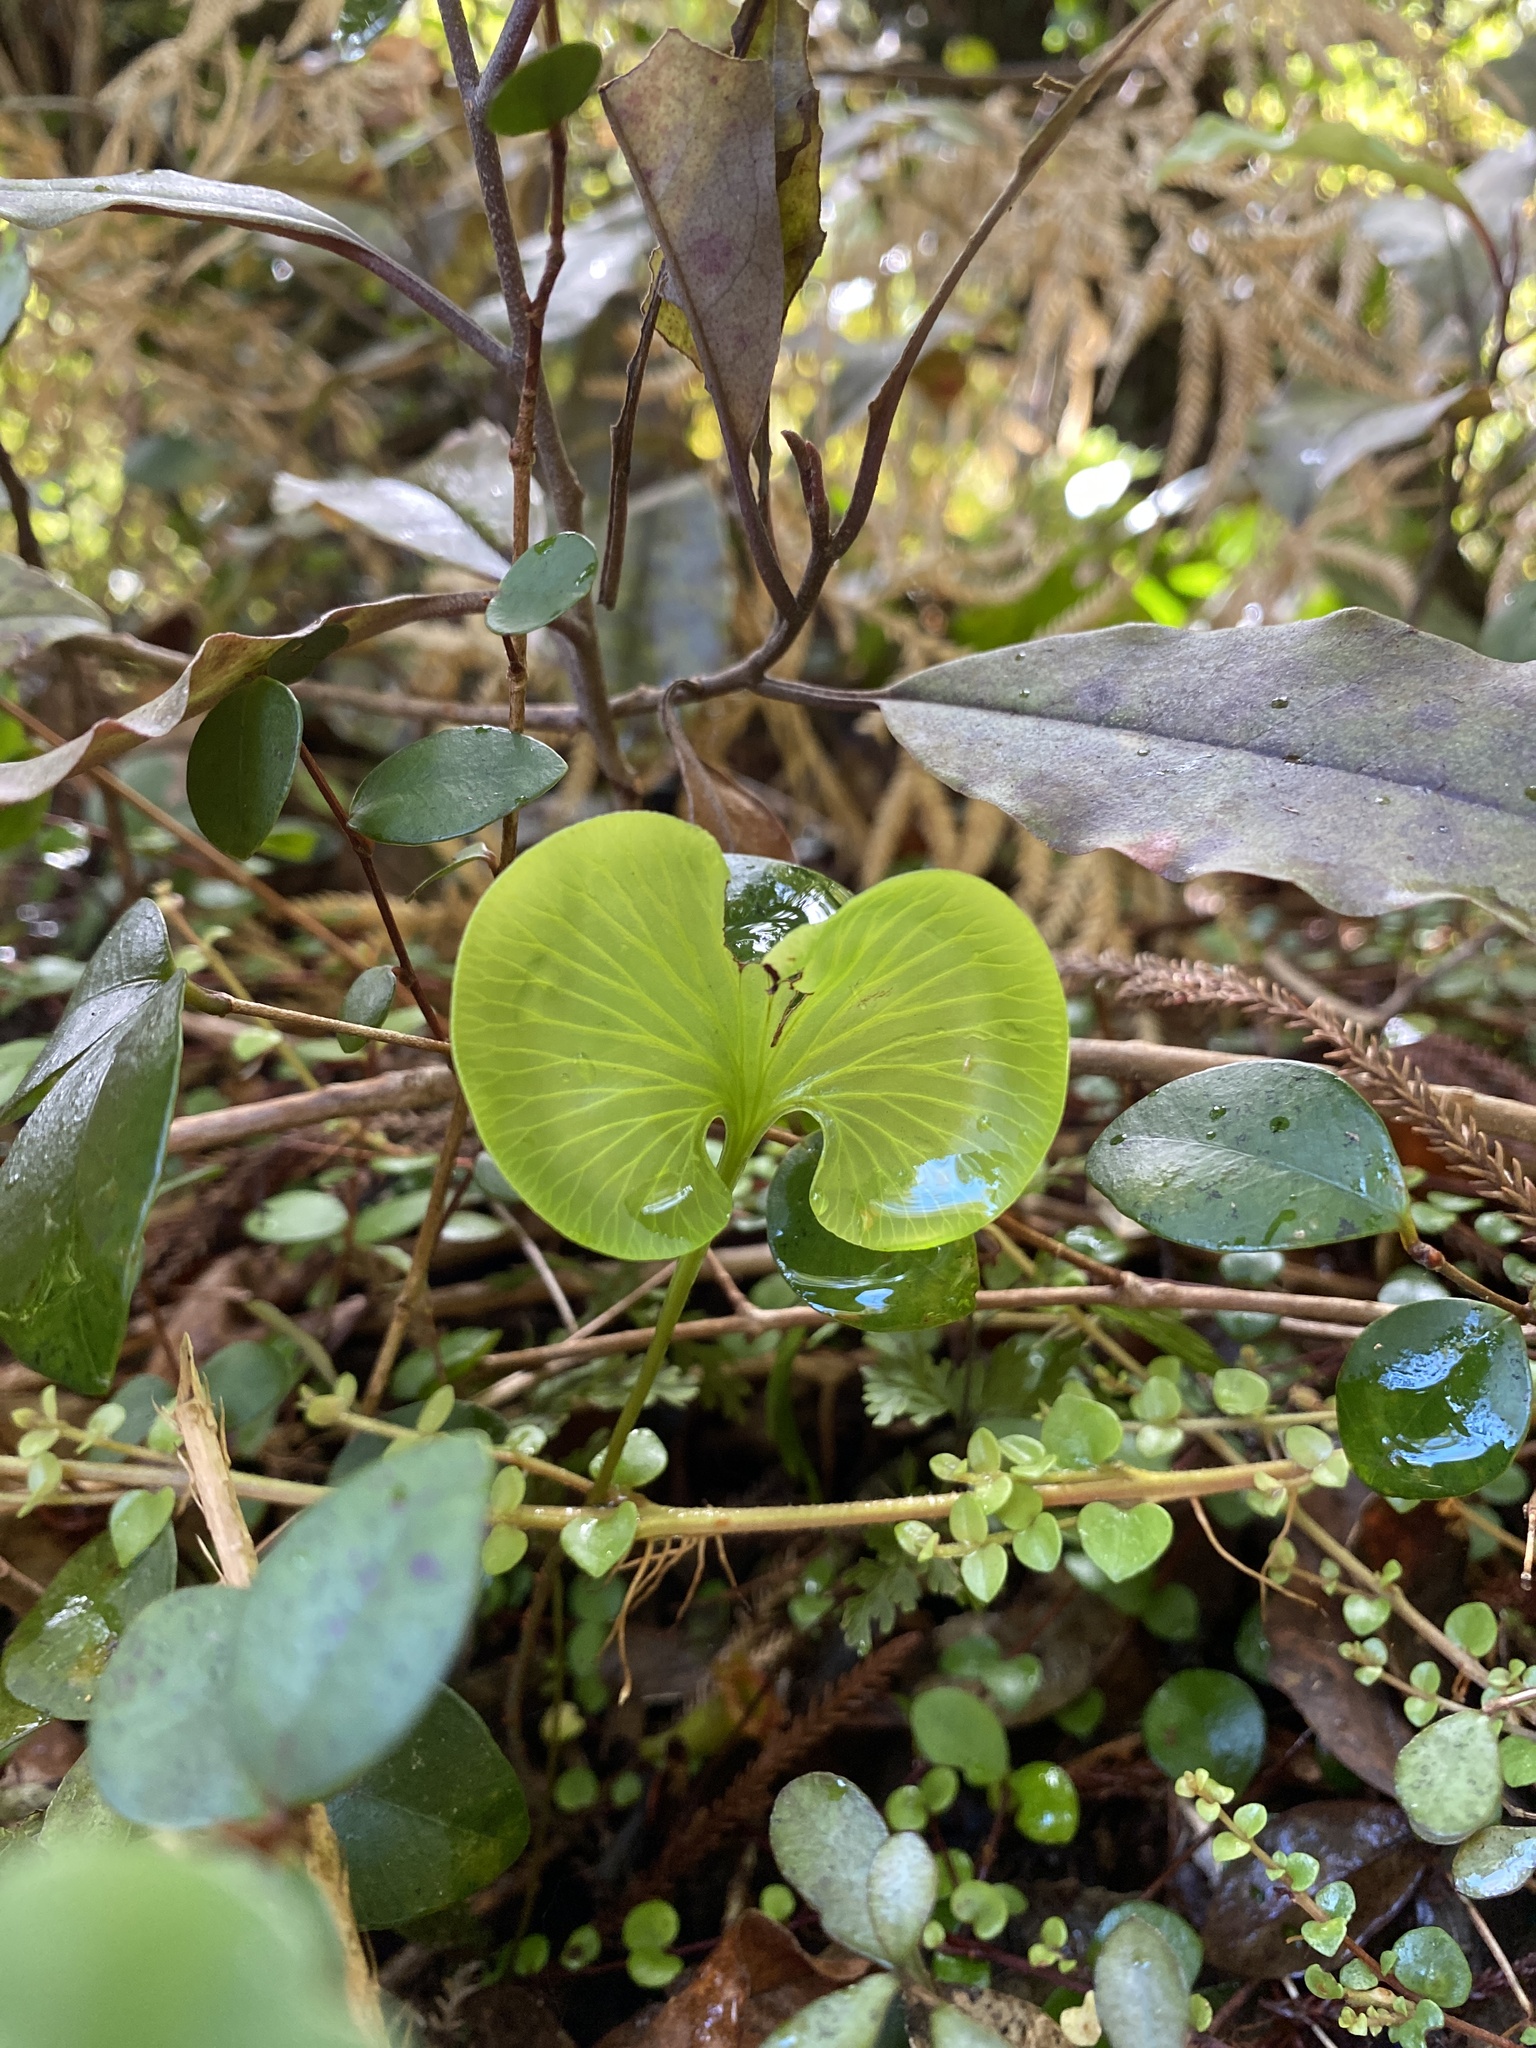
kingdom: Plantae
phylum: Tracheophyta
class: Polypodiopsida
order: Hymenophyllales
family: Hymenophyllaceae
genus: Hymenophyllum
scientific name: Hymenophyllum nephrophyllum
